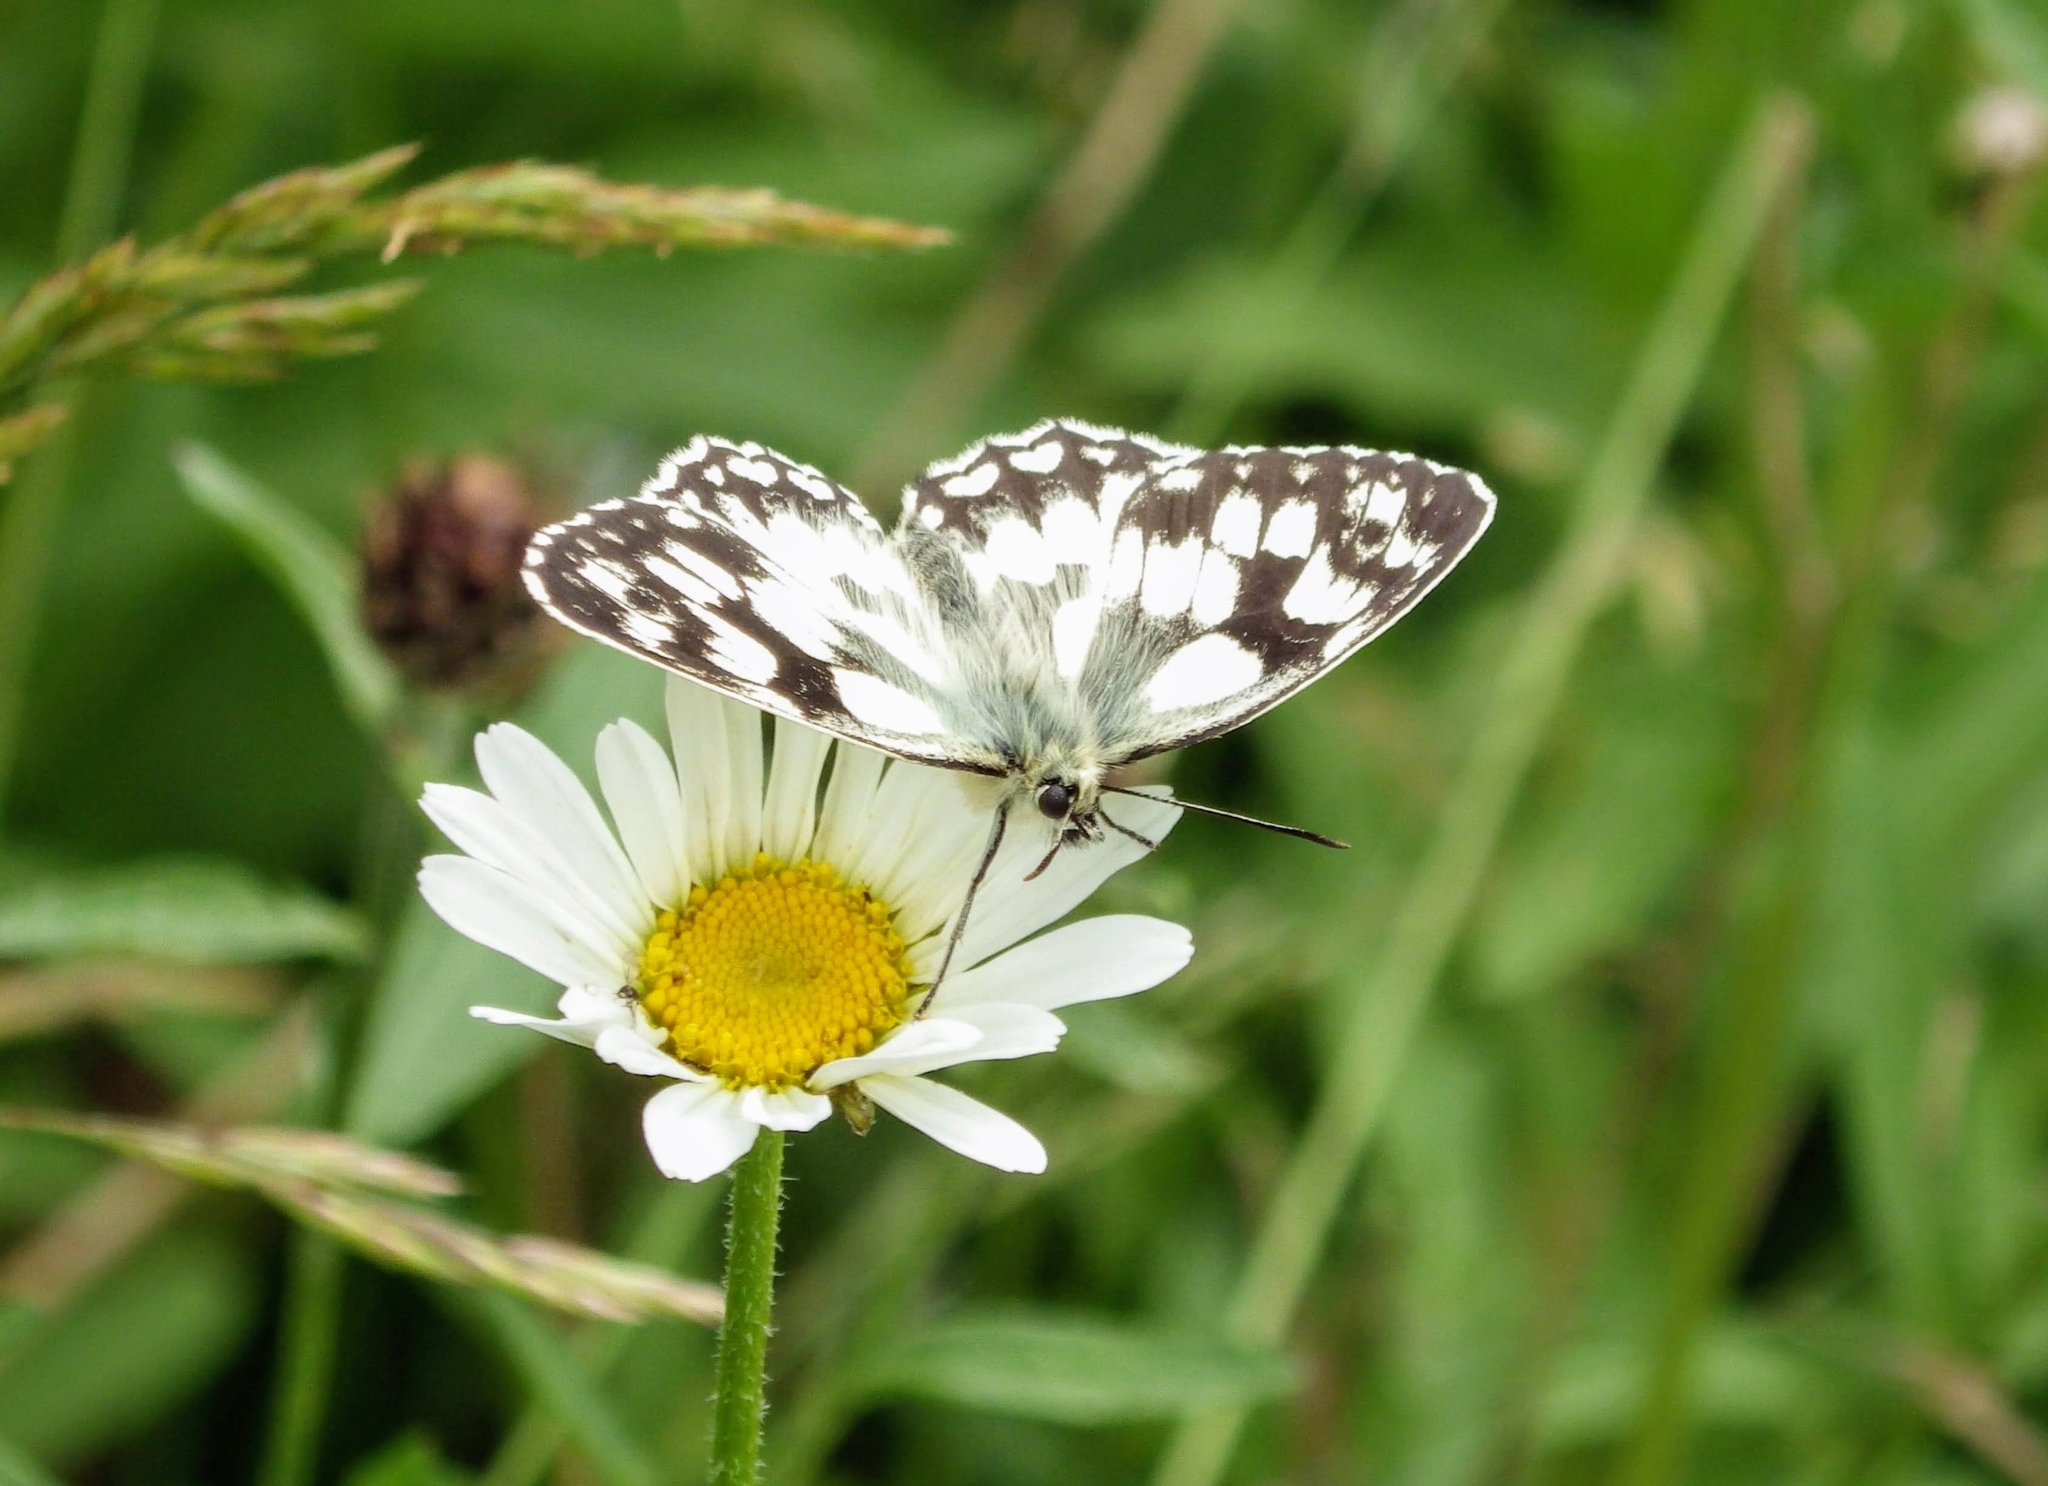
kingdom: Animalia
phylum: Arthropoda
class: Insecta
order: Lepidoptera
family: Nymphalidae
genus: Melanargia
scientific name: Melanargia galathea
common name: Marbled white
